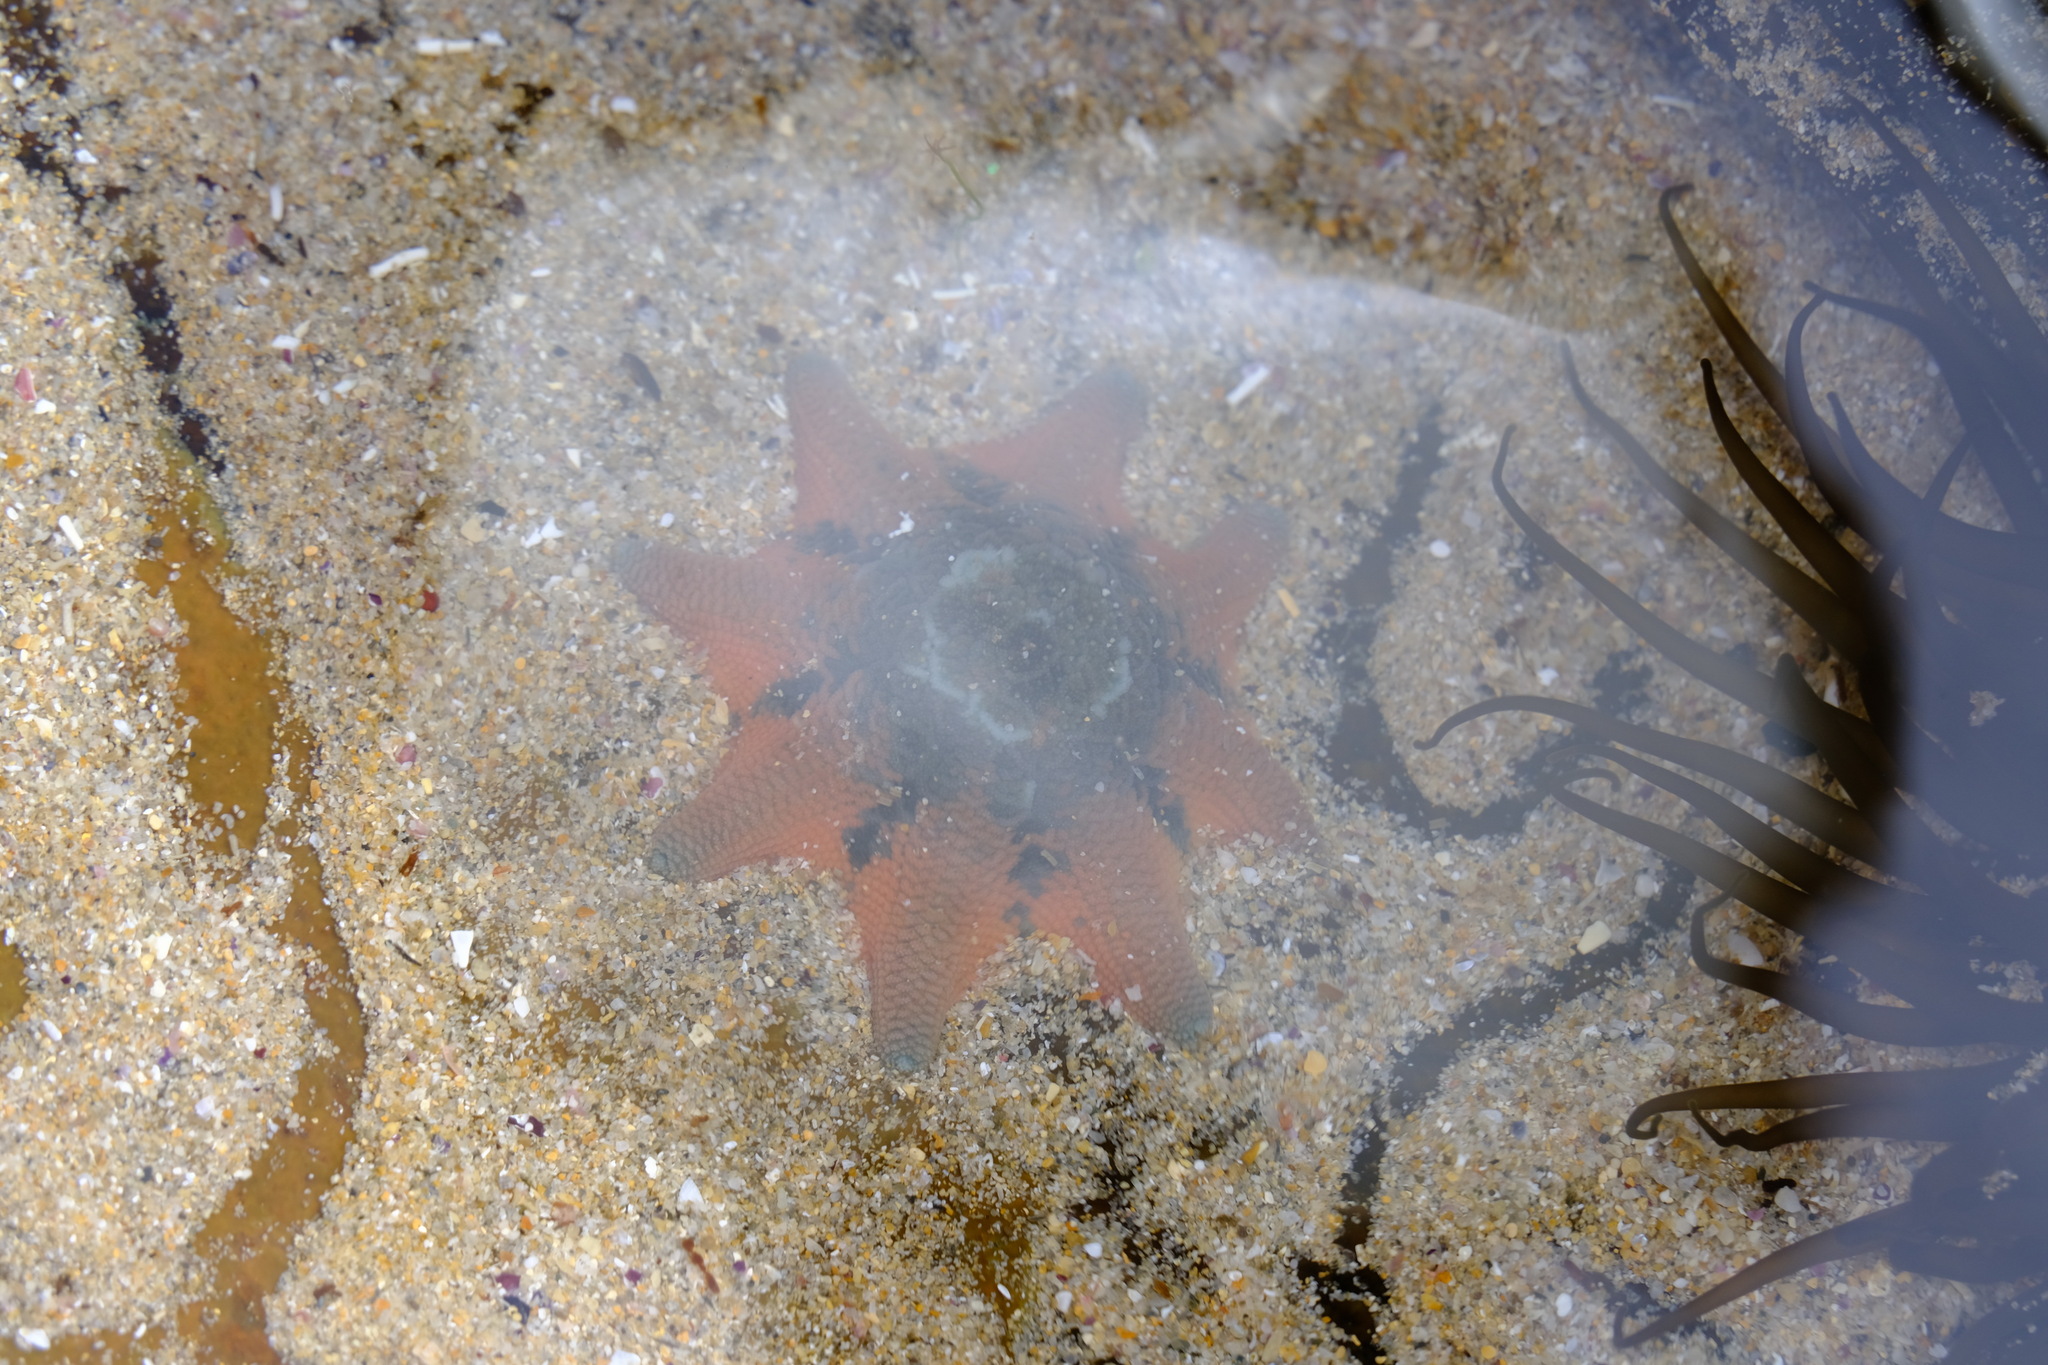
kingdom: Animalia
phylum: Echinodermata
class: Asteroidea
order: Valvatida
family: Asterinidae
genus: Meridiastra
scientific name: Meridiastra calcar
